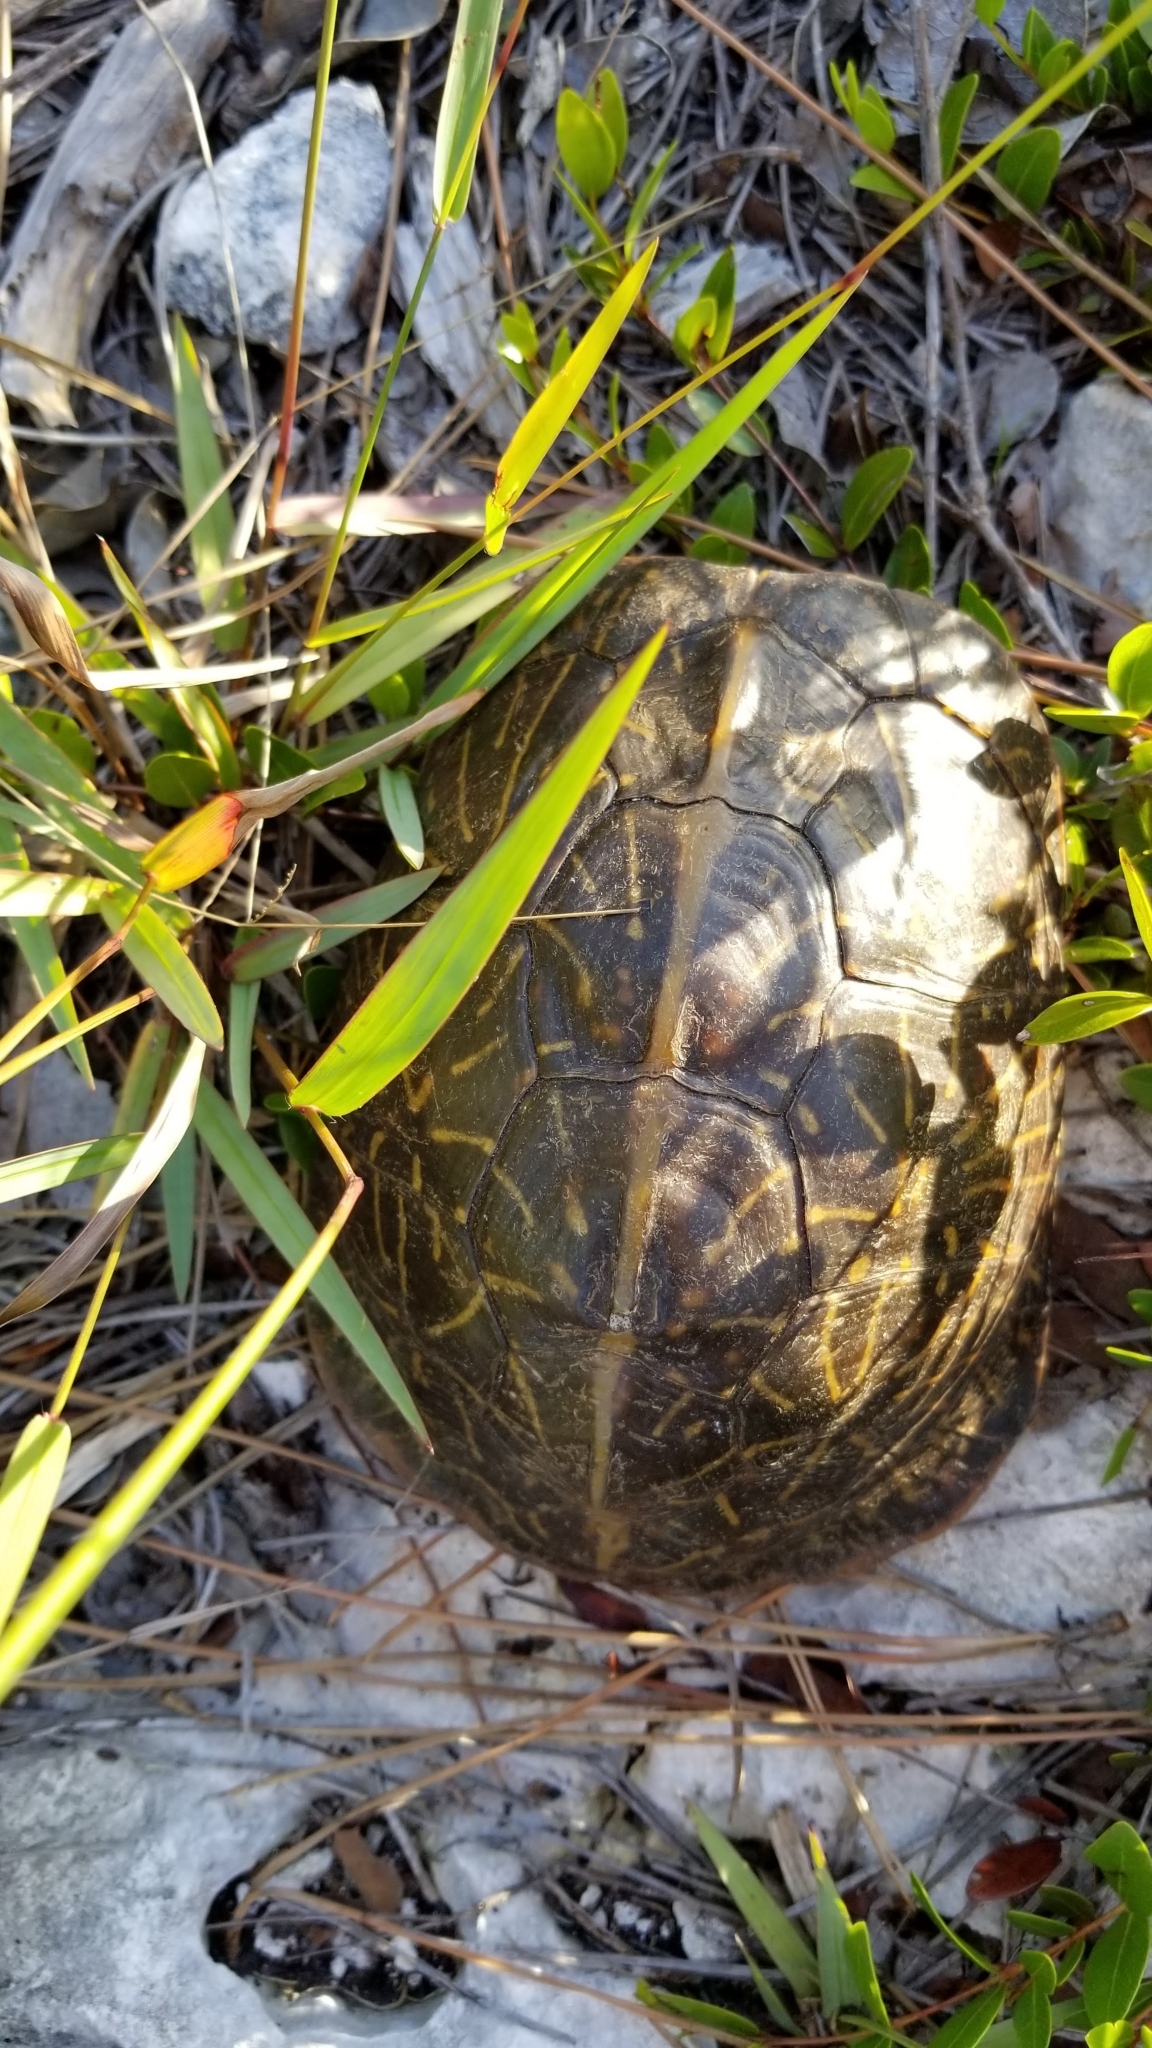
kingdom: Animalia
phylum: Chordata
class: Testudines
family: Emydidae
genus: Terrapene
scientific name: Terrapene carolina
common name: Common box turtle
